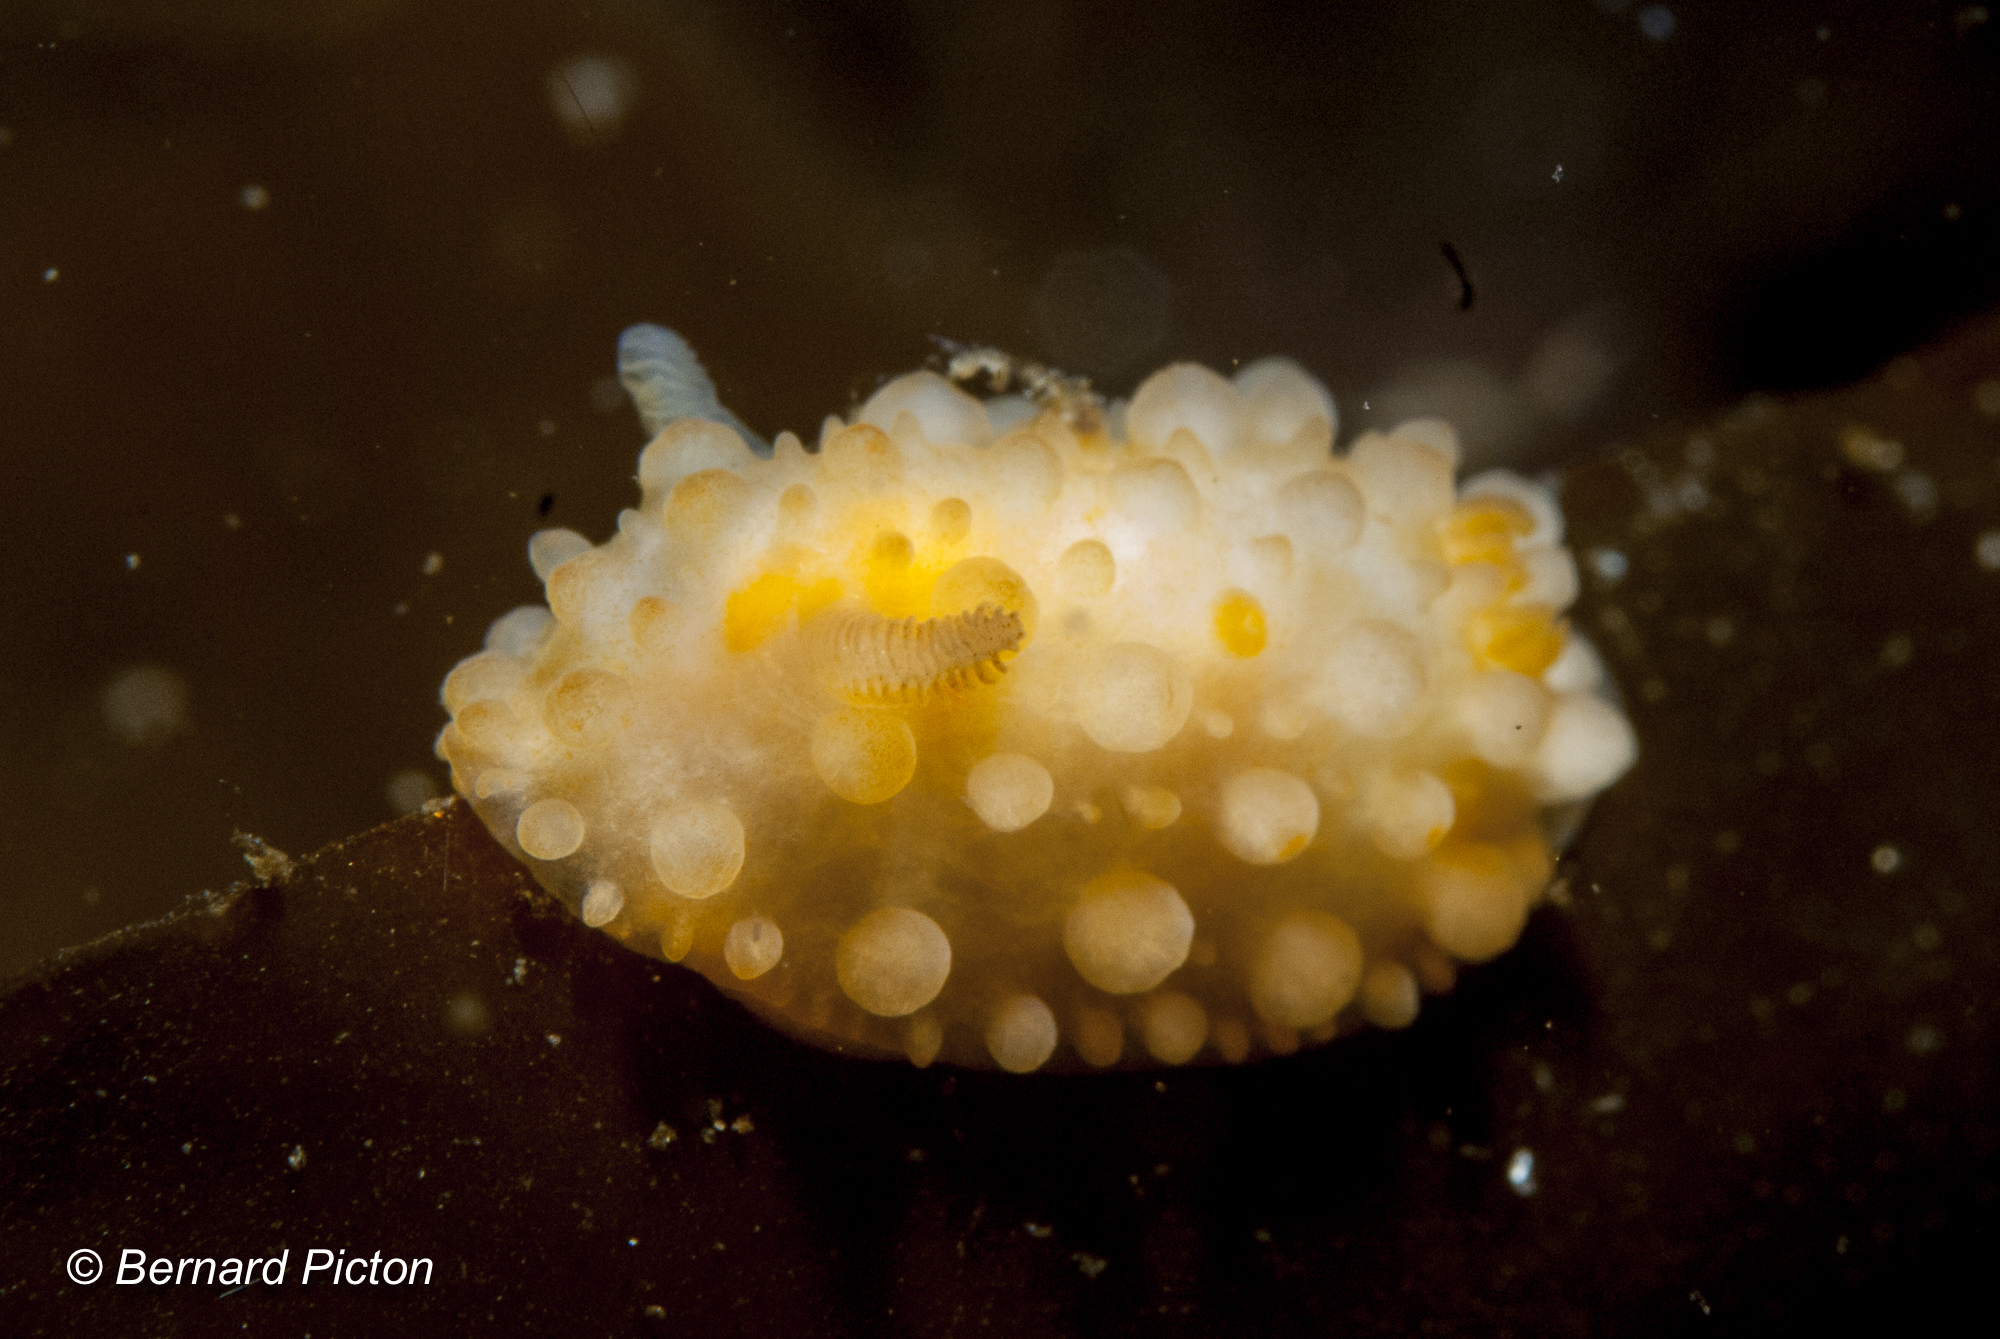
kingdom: Animalia
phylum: Mollusca
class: Gastropoda
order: Nudibranchia
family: Onchidorididae
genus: Adalaria
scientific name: Adalaria loveni
